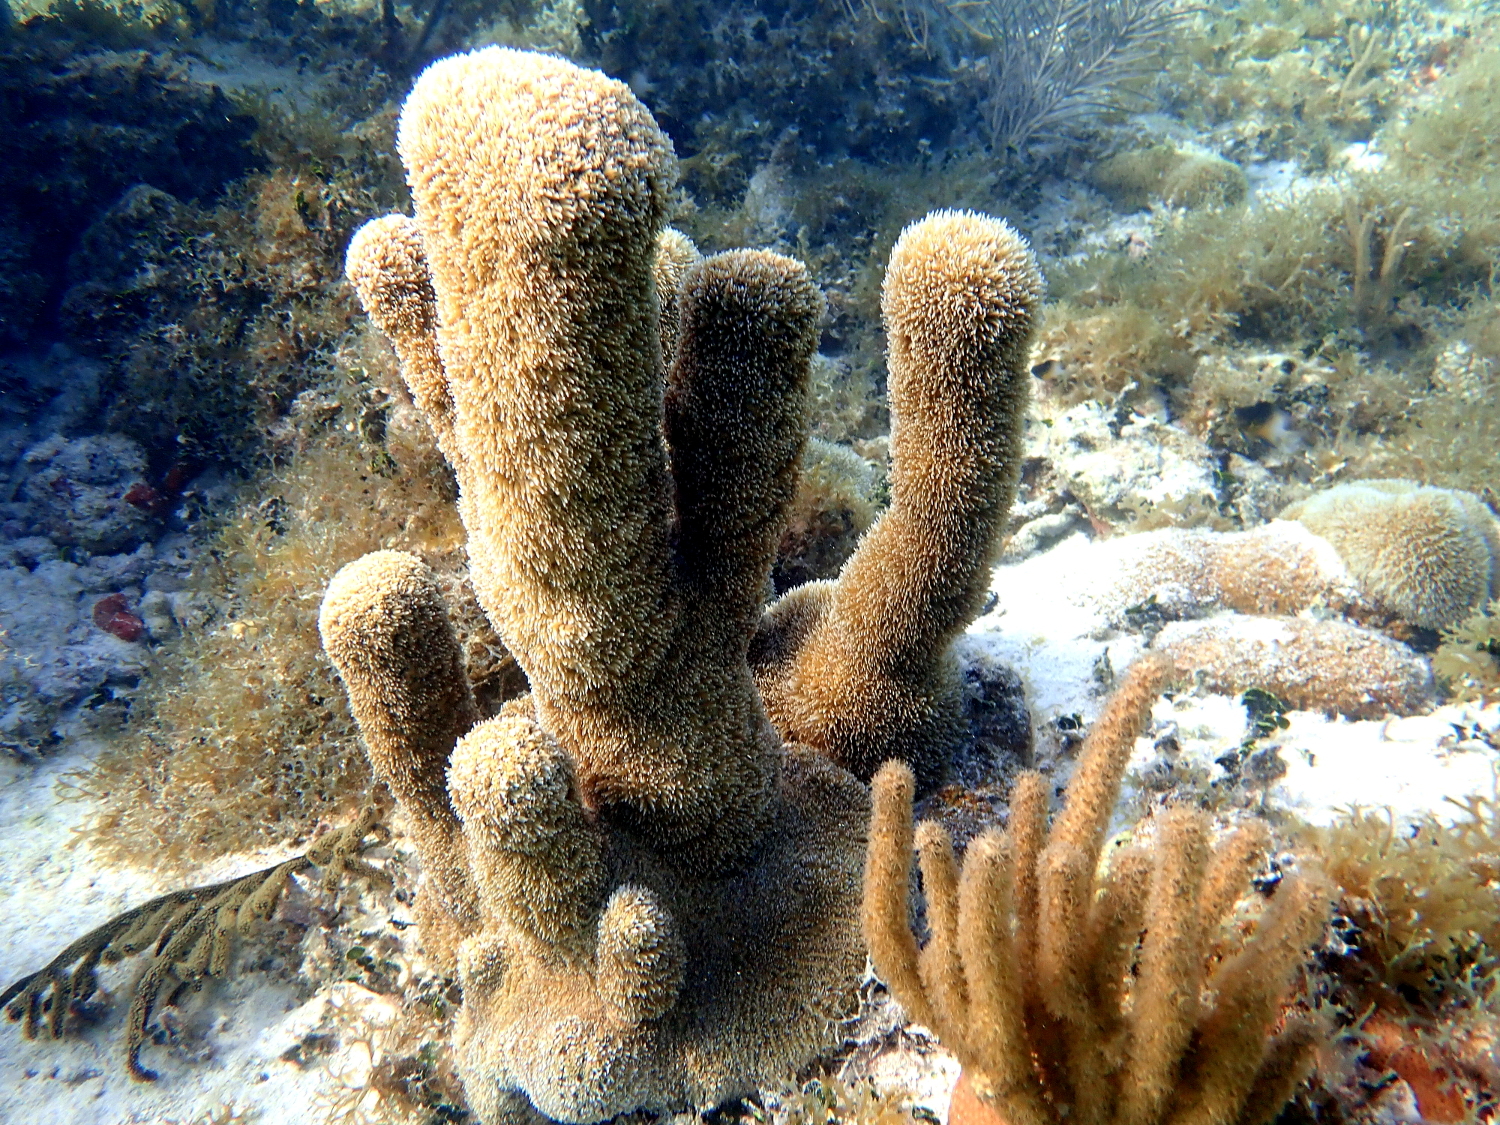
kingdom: Animalia
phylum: Cnidaria
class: Anthozoa
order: Scleractinia
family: Meandrinidae
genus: Dendrogyra
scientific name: Dendrogyra cylindrus
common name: Pillar coral
